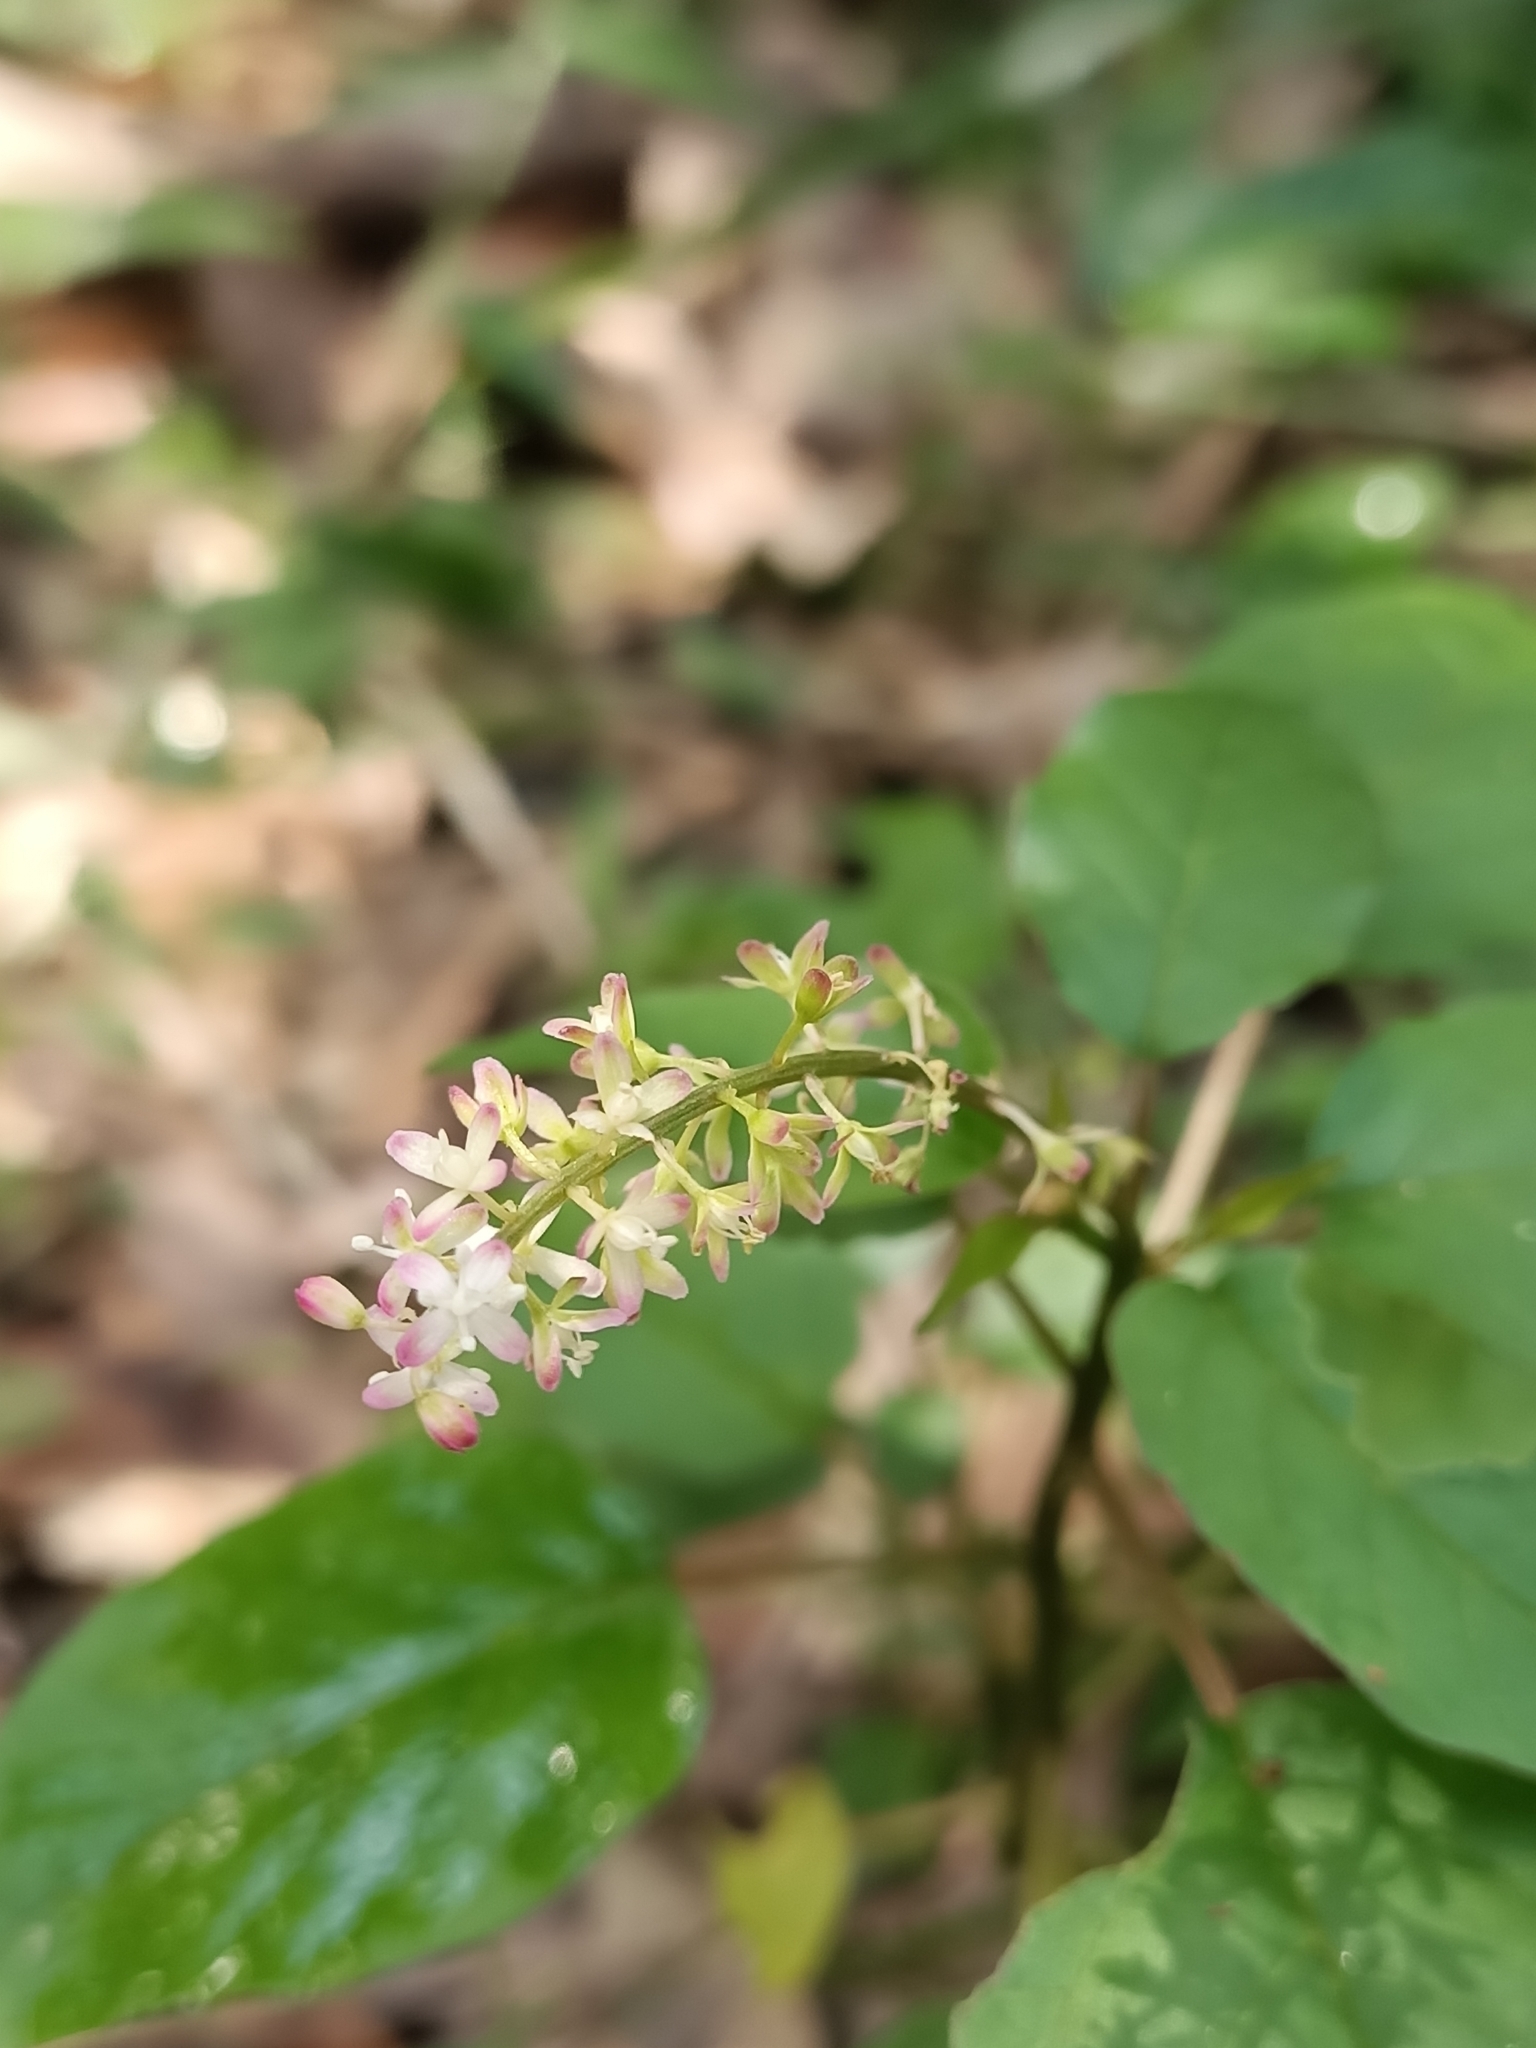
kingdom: Plantae
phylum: Tracheophyta
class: Magnoliopsida
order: Caryophyllales
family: Phytolaccaceae
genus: Rivina
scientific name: Rivina humilis
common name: Rougeplant
